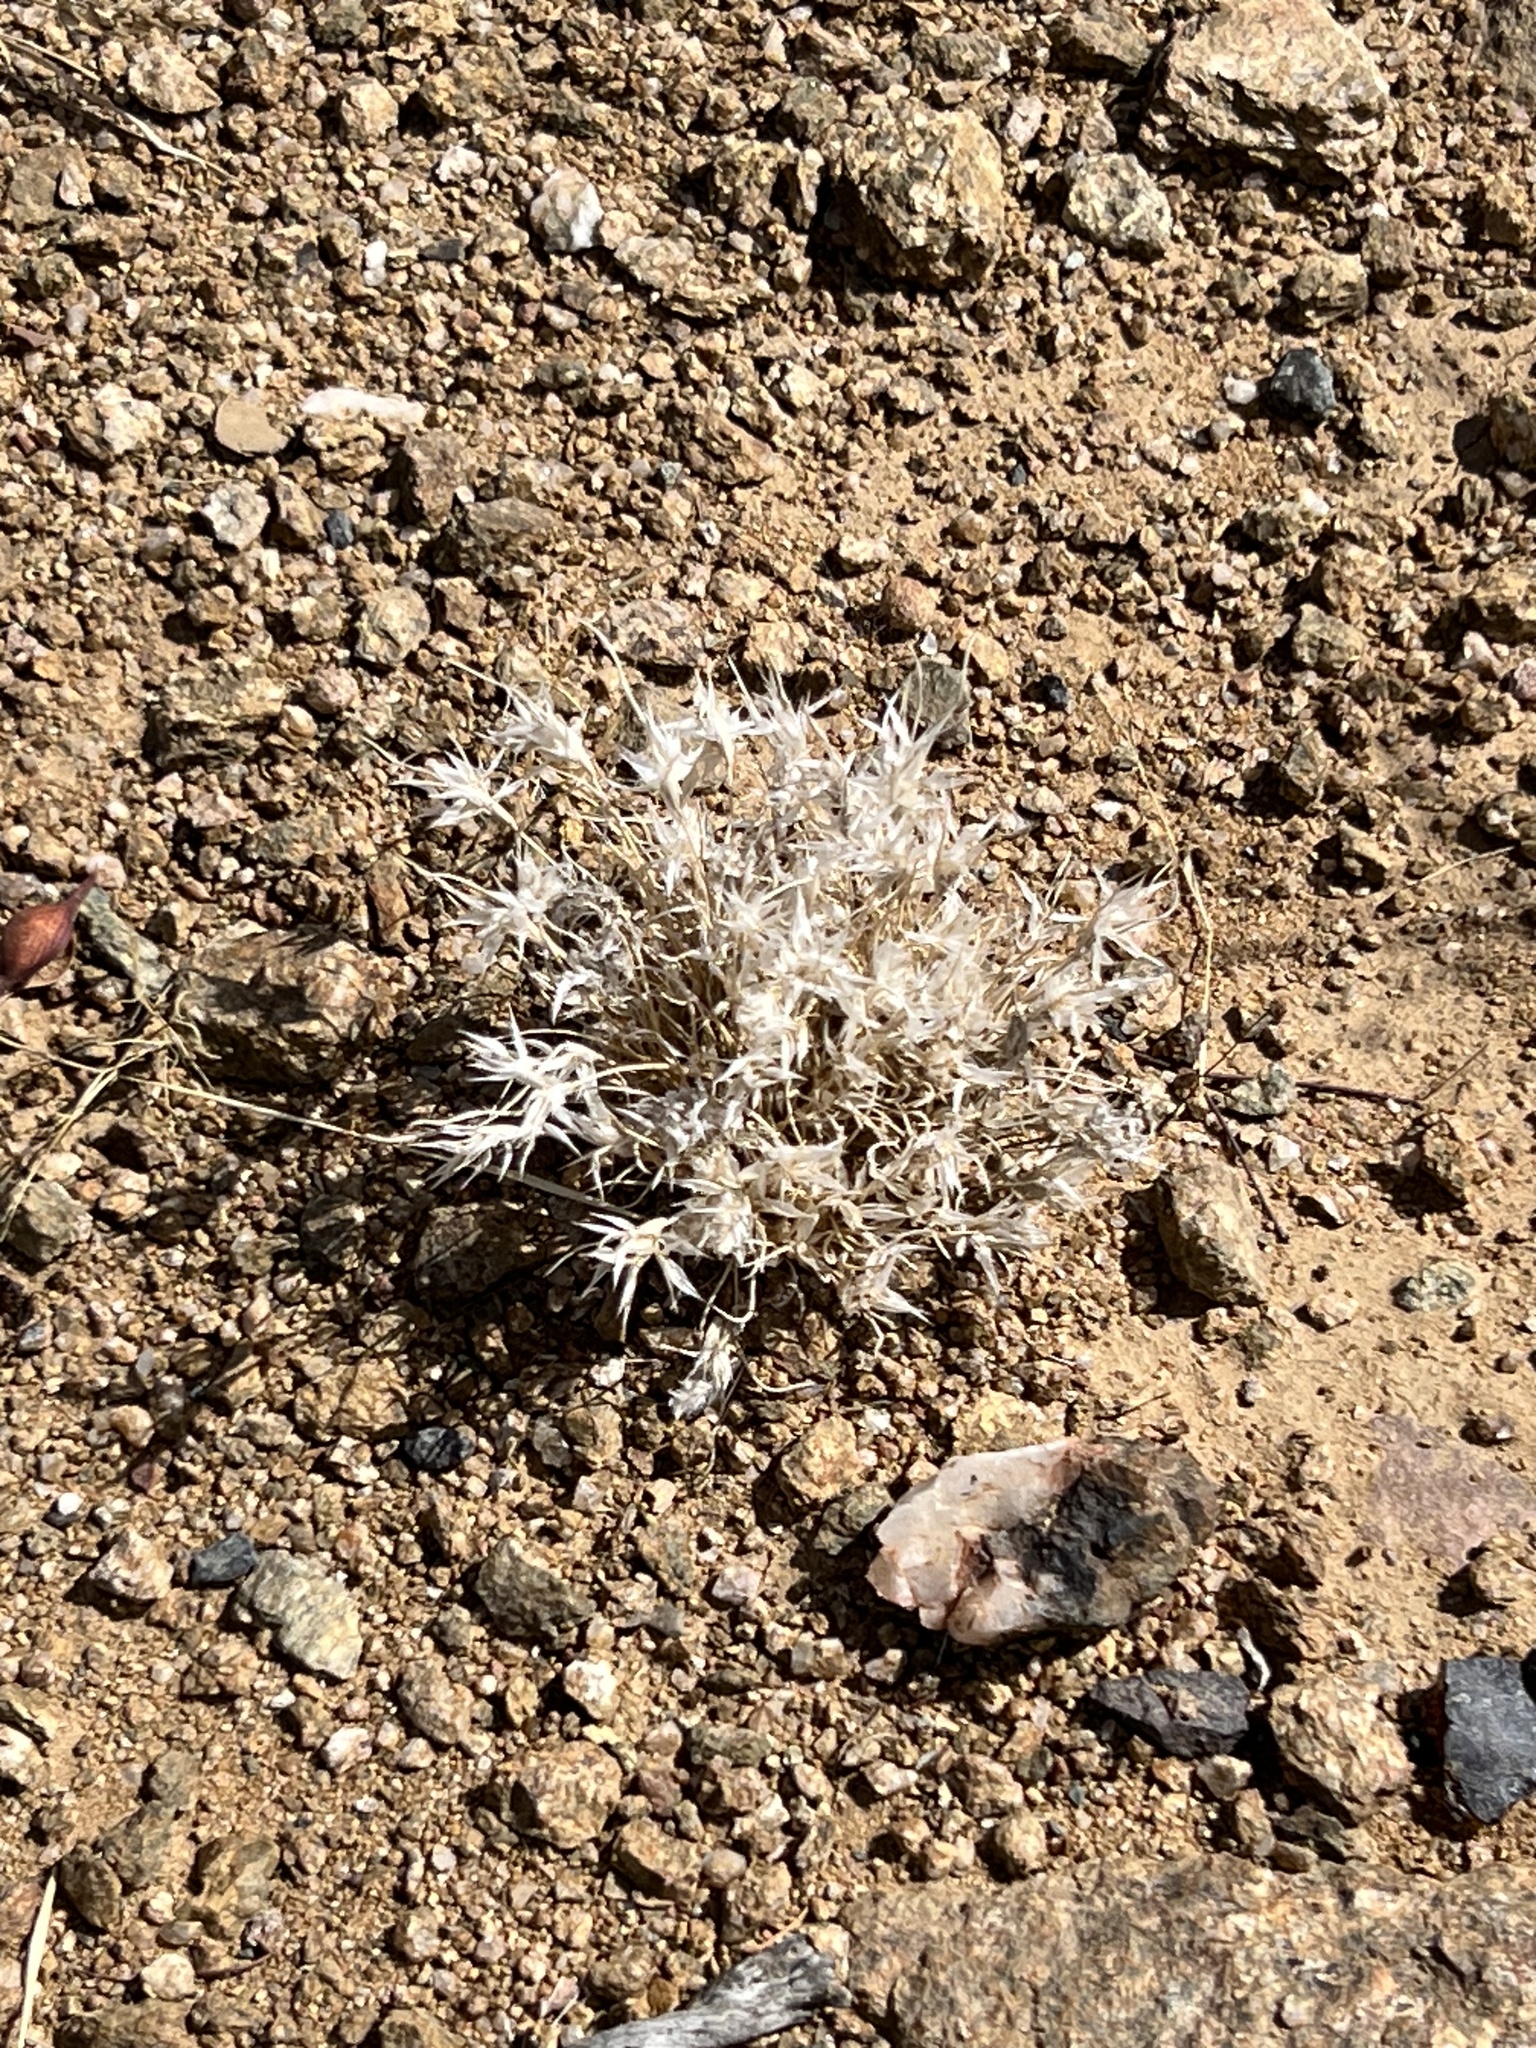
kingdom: Plantae
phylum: Tracheophyta
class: Liliopsida
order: Poales
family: Poaceae
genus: Dasyochloa
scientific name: Dasyochloa pulchella
